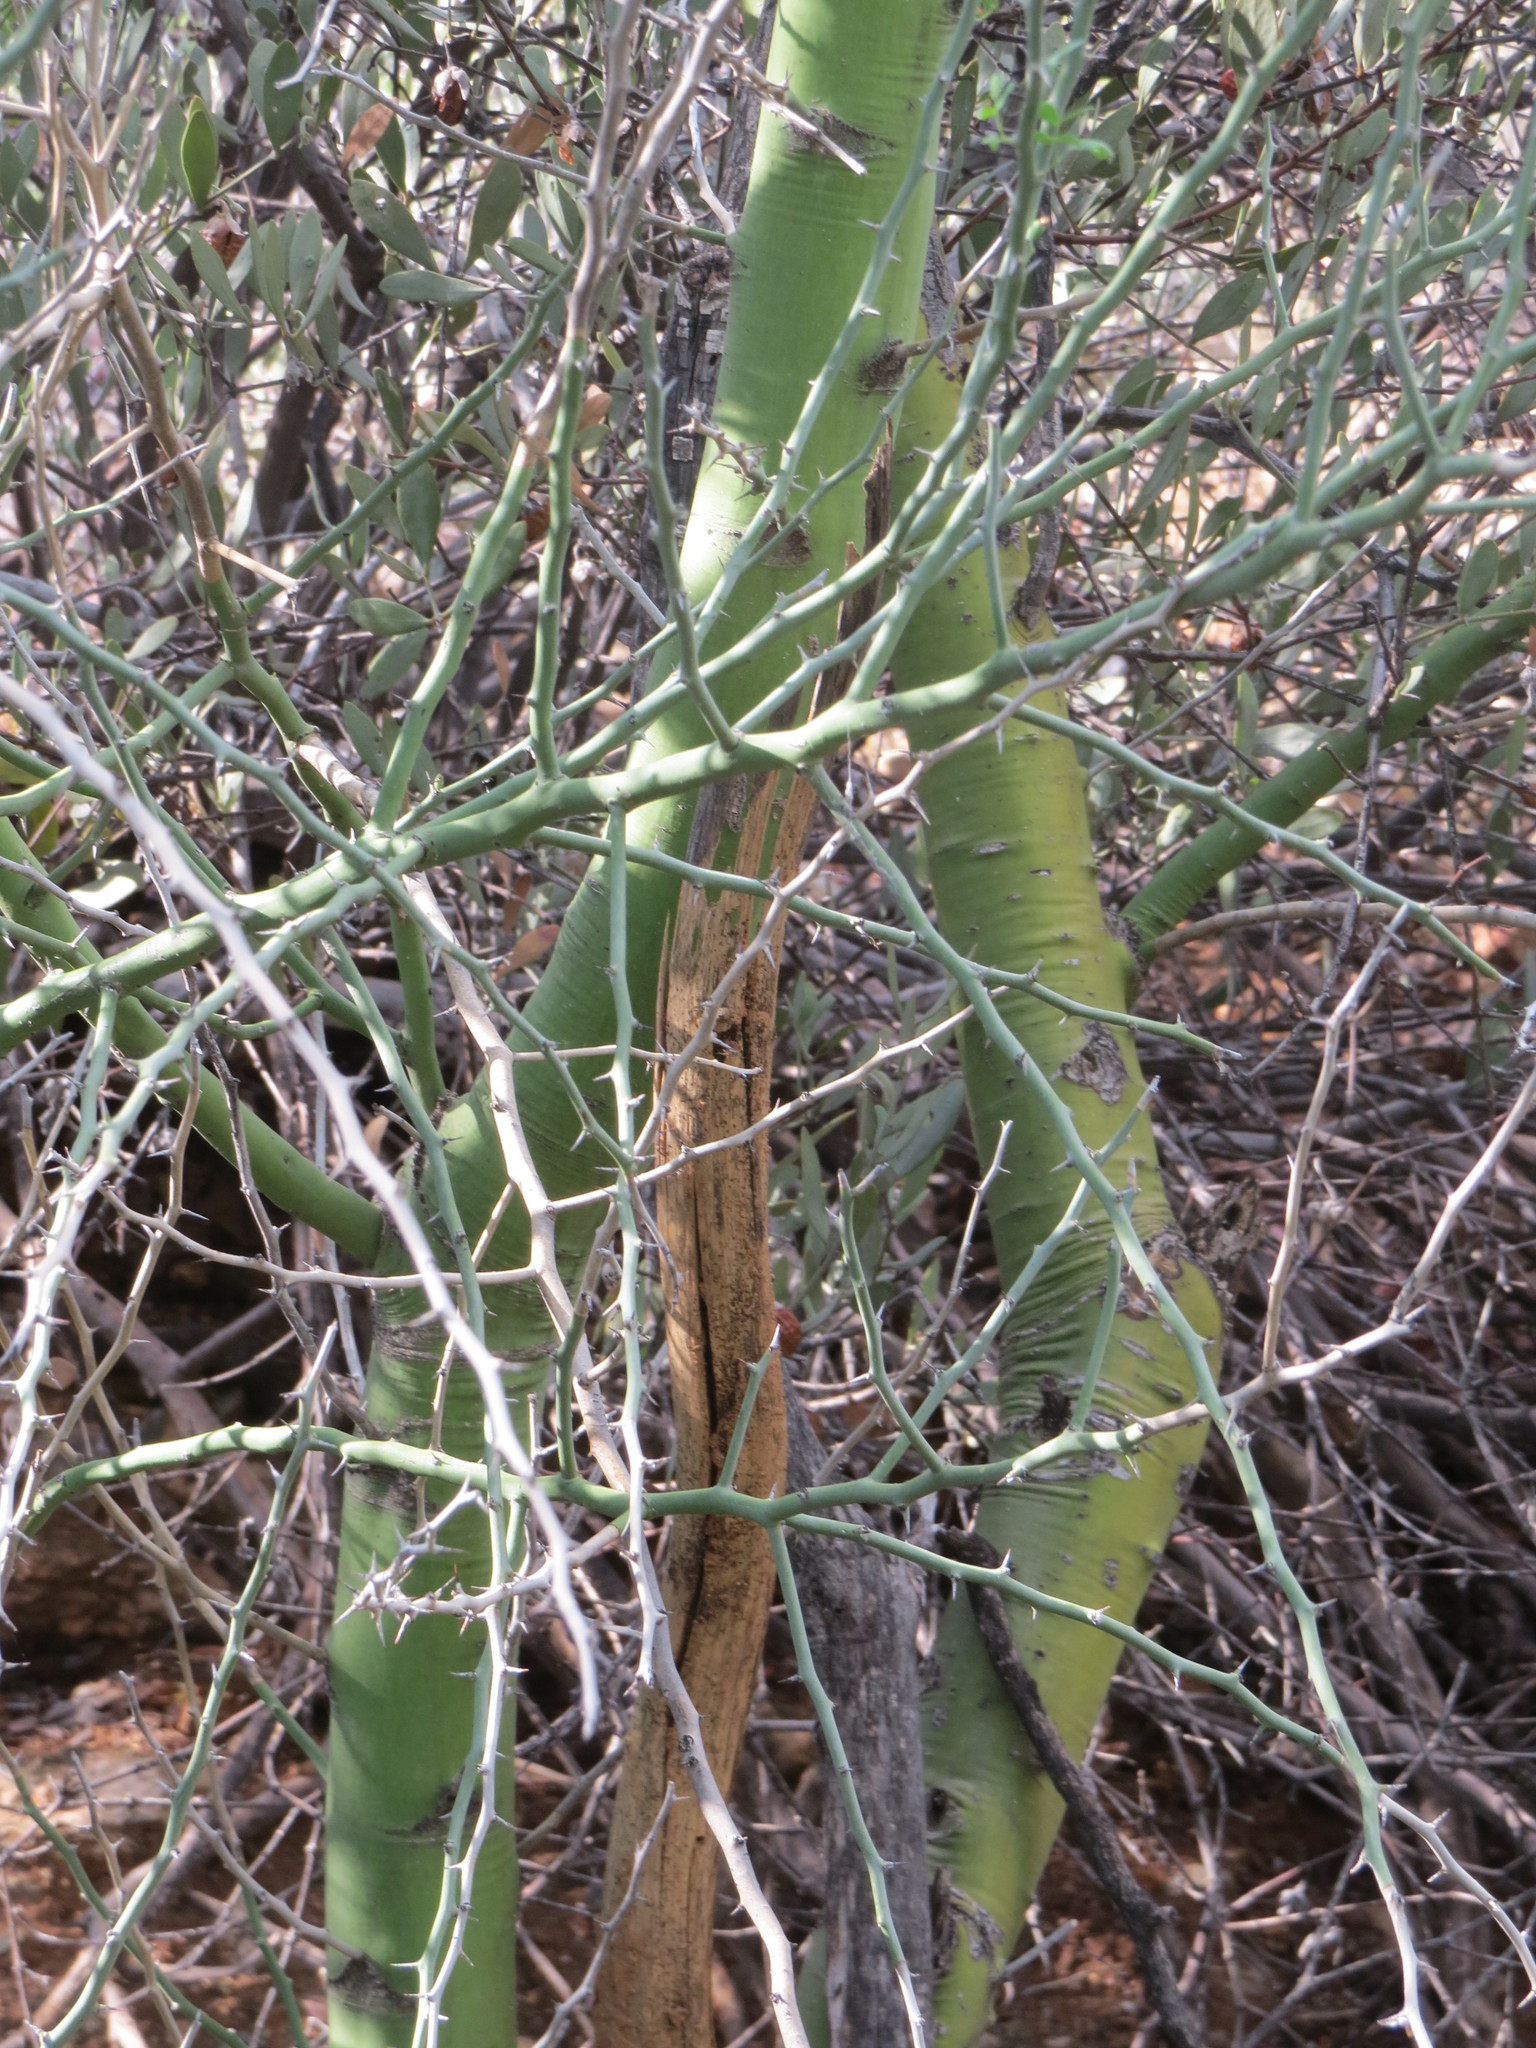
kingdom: Plantae
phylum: Tracheophyta
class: Magnoliopsida
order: Fabales
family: Fabaceae
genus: Parkinsonia
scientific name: Parkinsonia florida
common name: Blue paloverde
